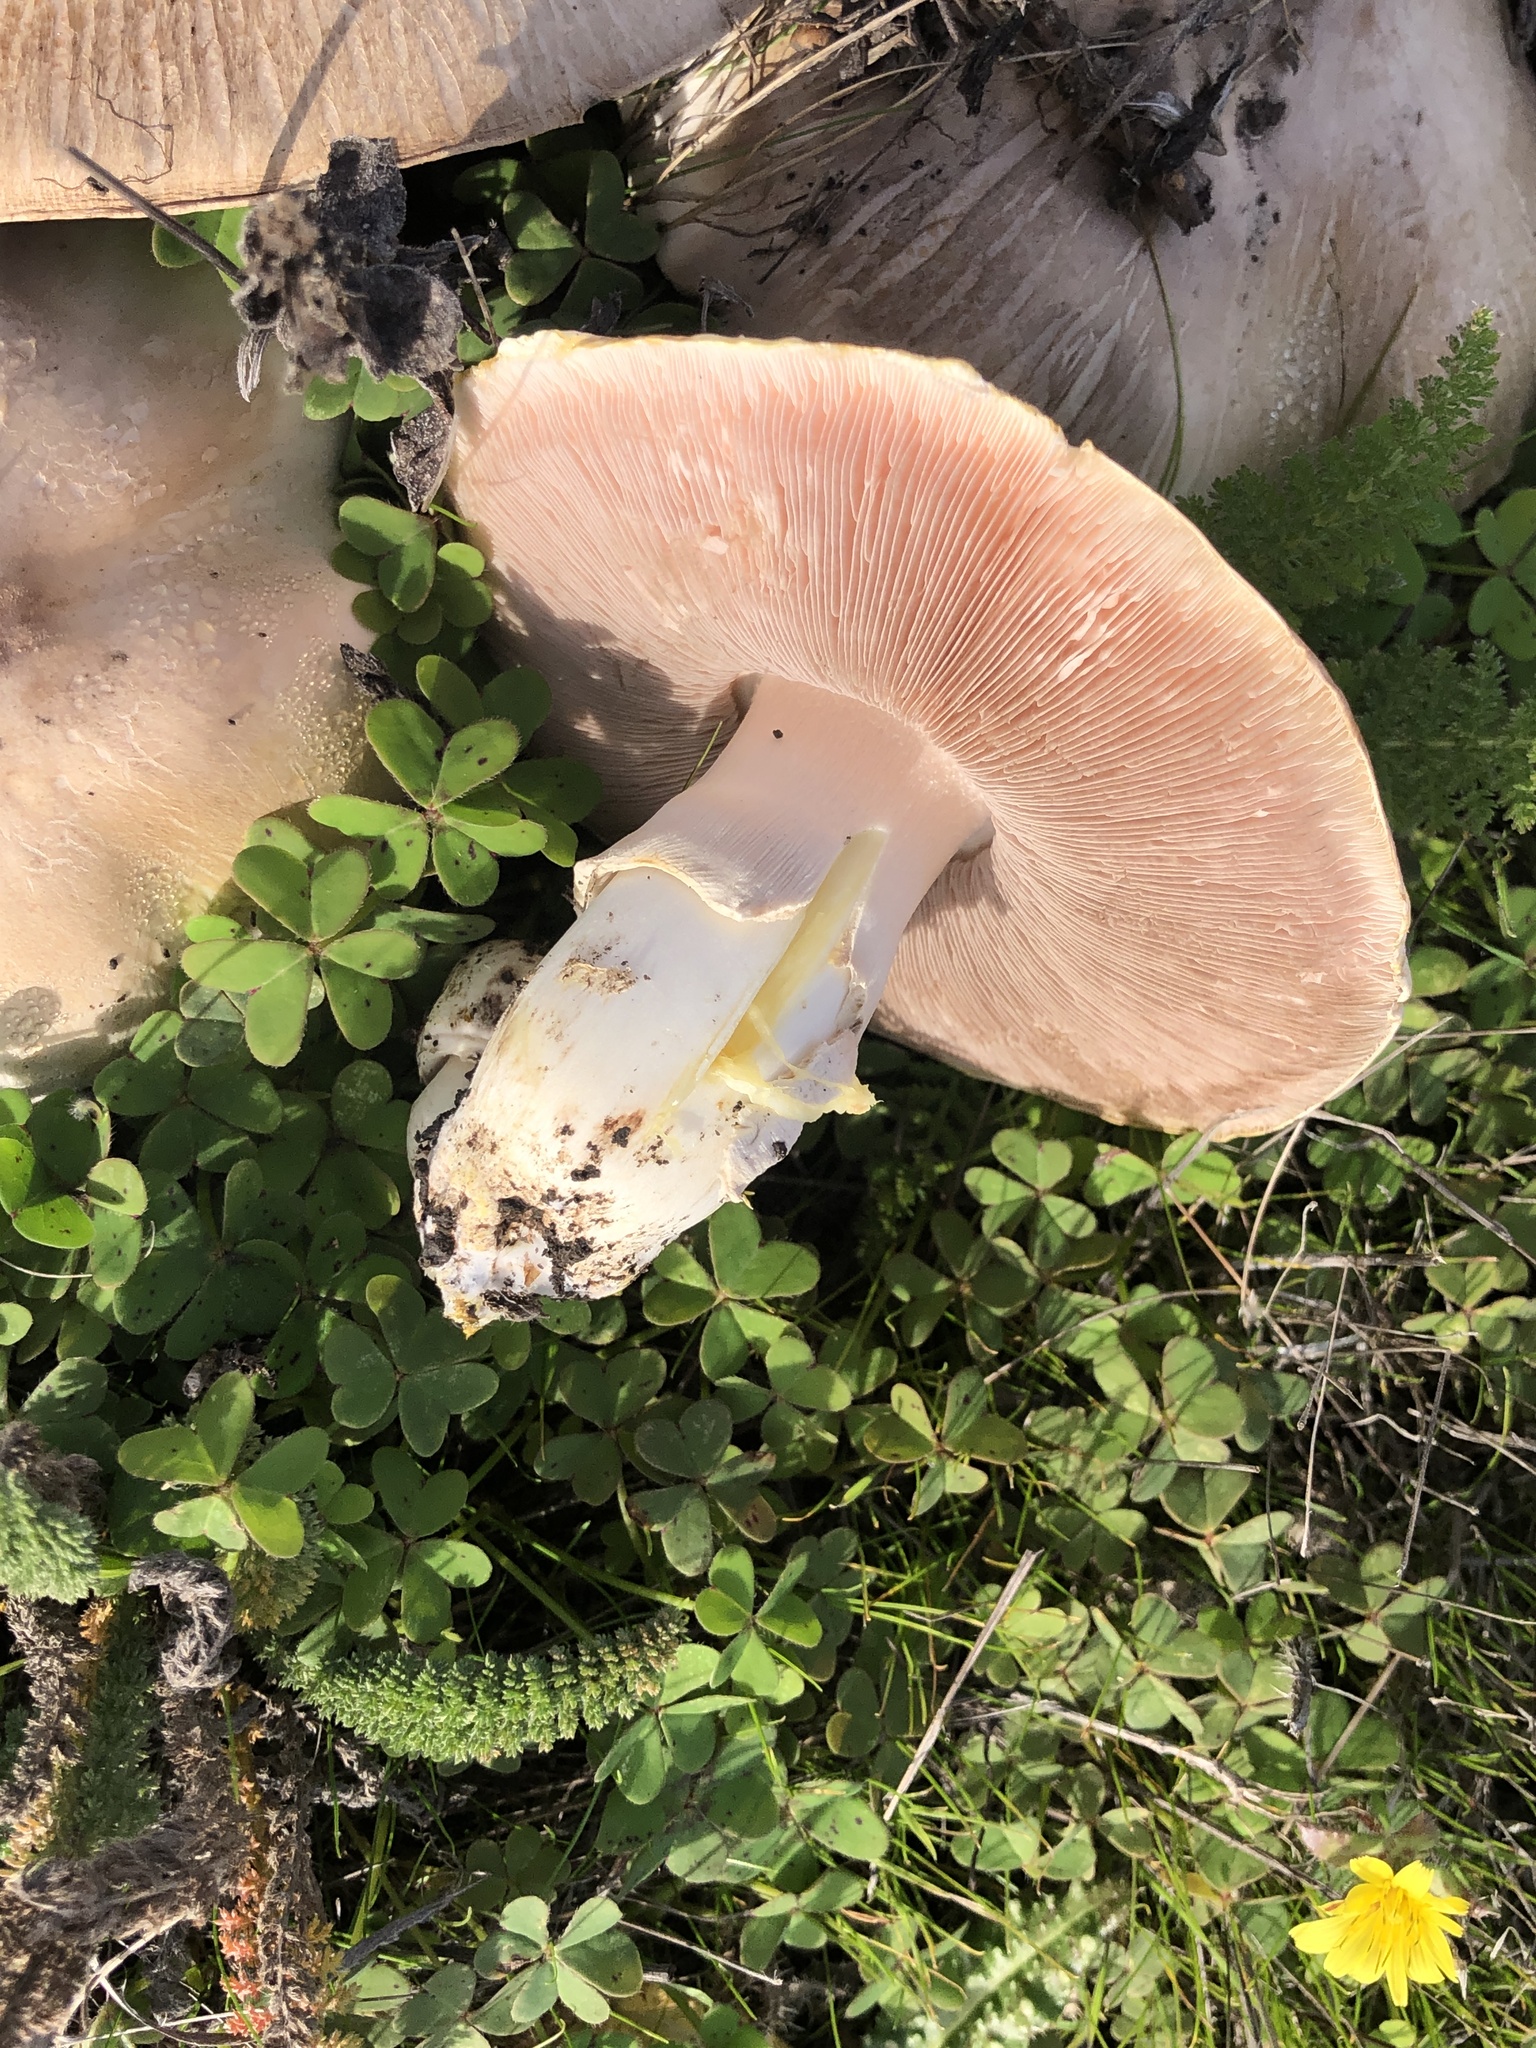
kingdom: Fungi
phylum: Basidiomycota
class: Agaricomycetes
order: Agaricales
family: Agaricaceae
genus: Agaricus
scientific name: Agaricus xanthodermus
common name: Yellow stainer
